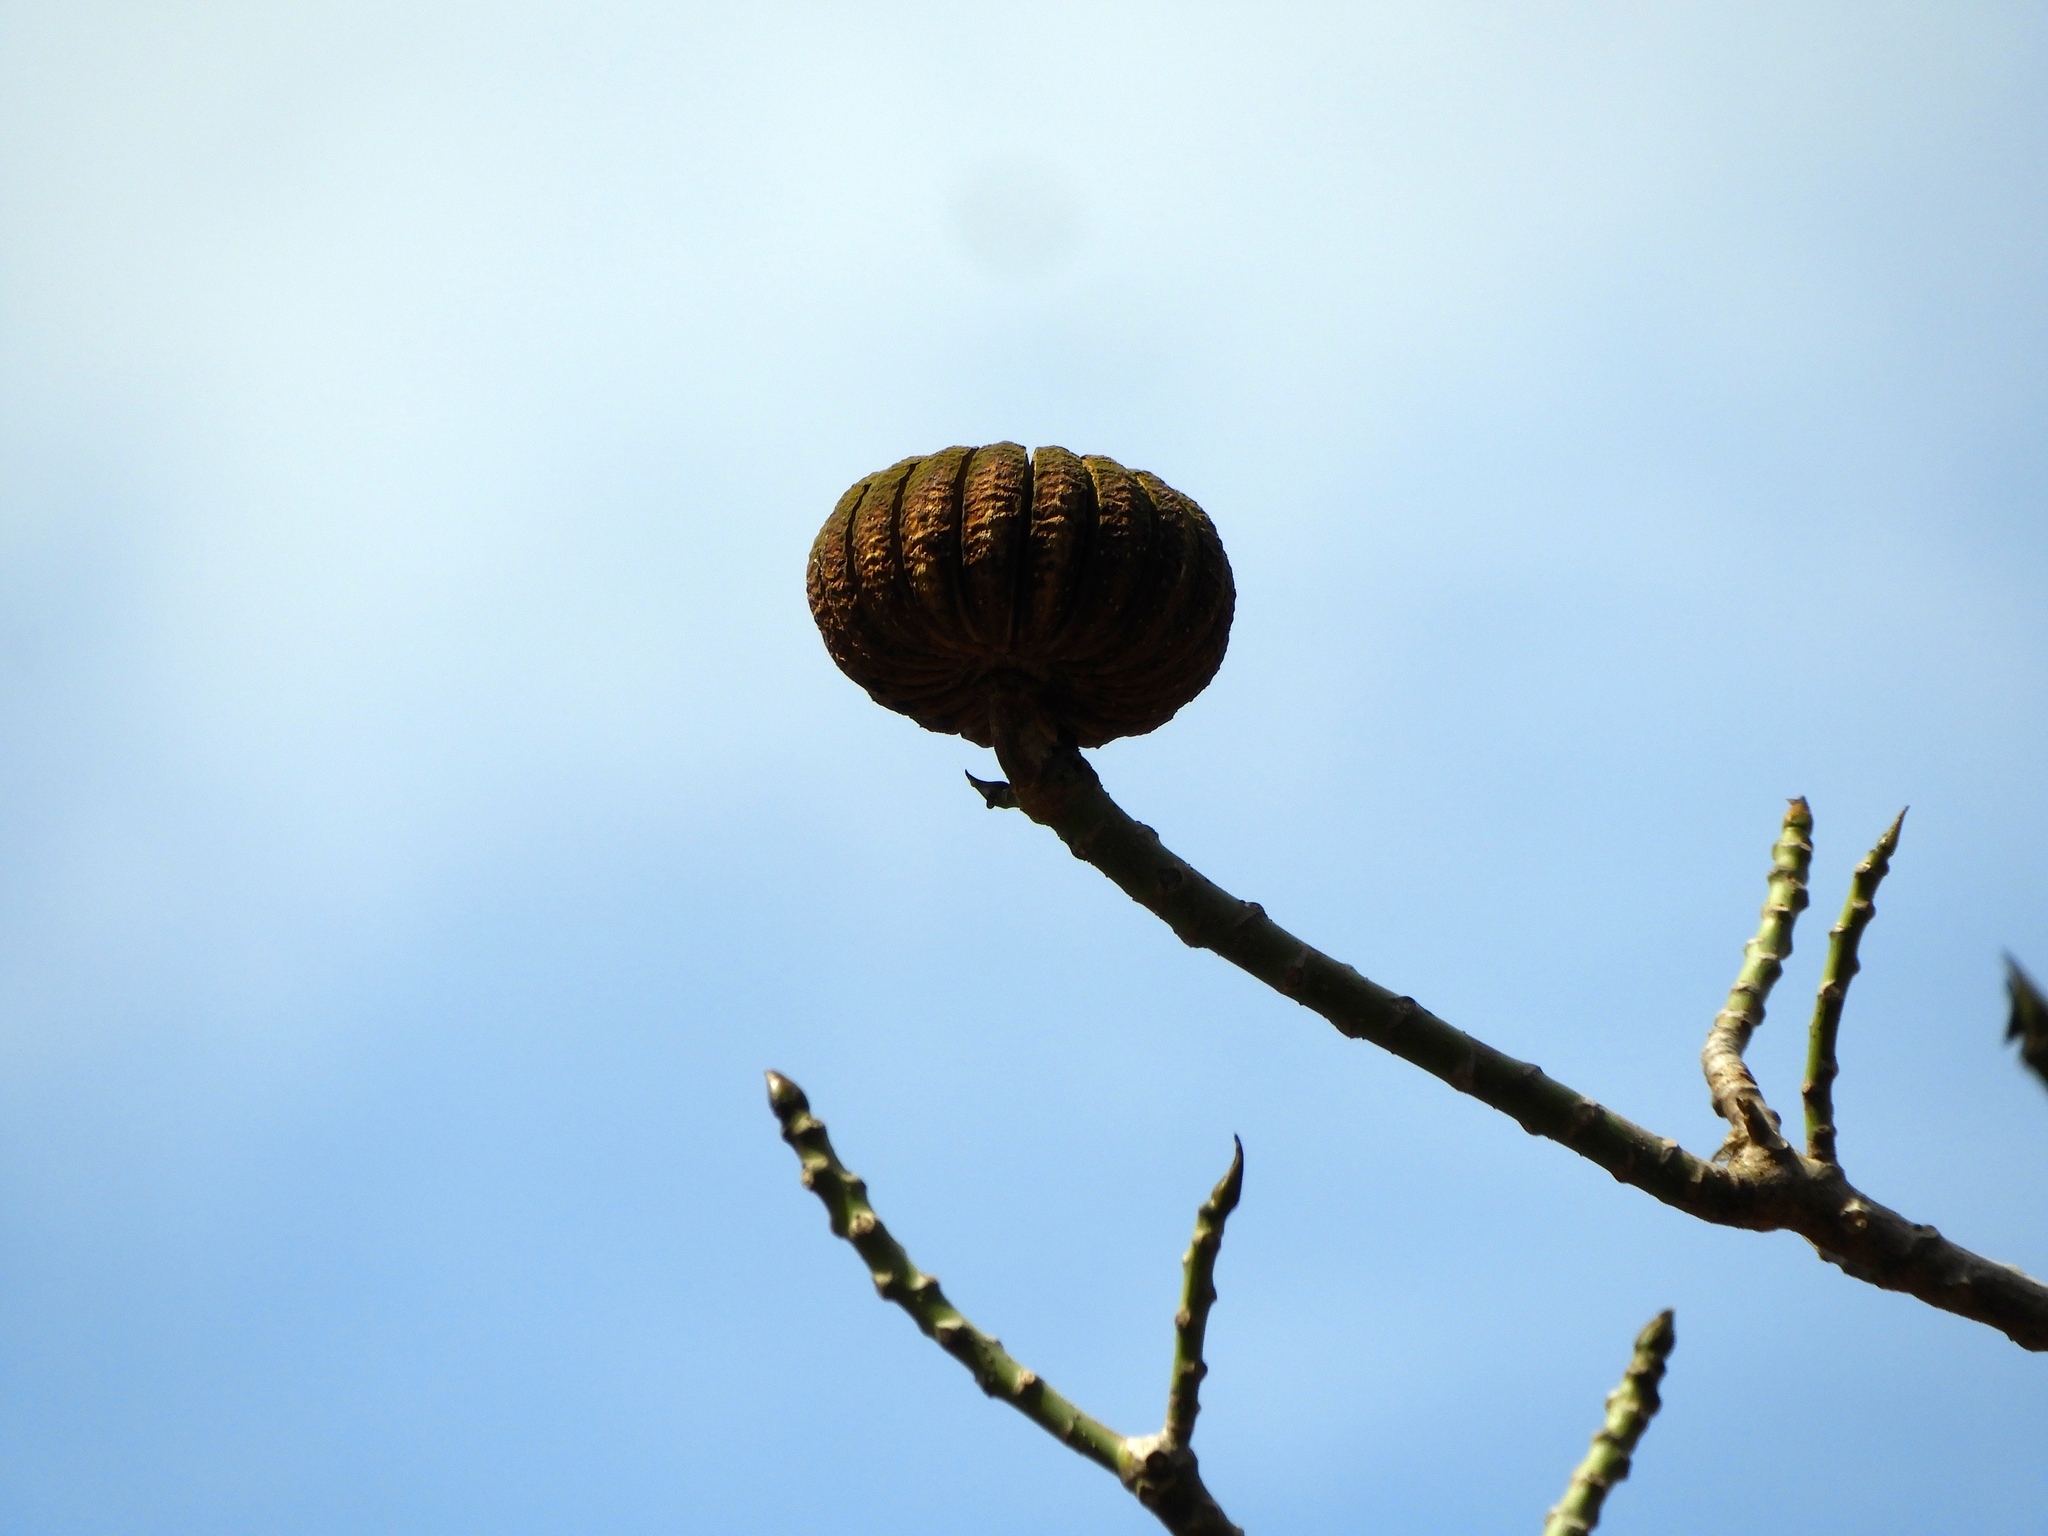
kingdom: Plantae
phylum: Tracheophyta
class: Magnoliopsida
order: Malpighiales
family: Euphorbiaceae
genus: Hura
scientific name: Hura polyandra
